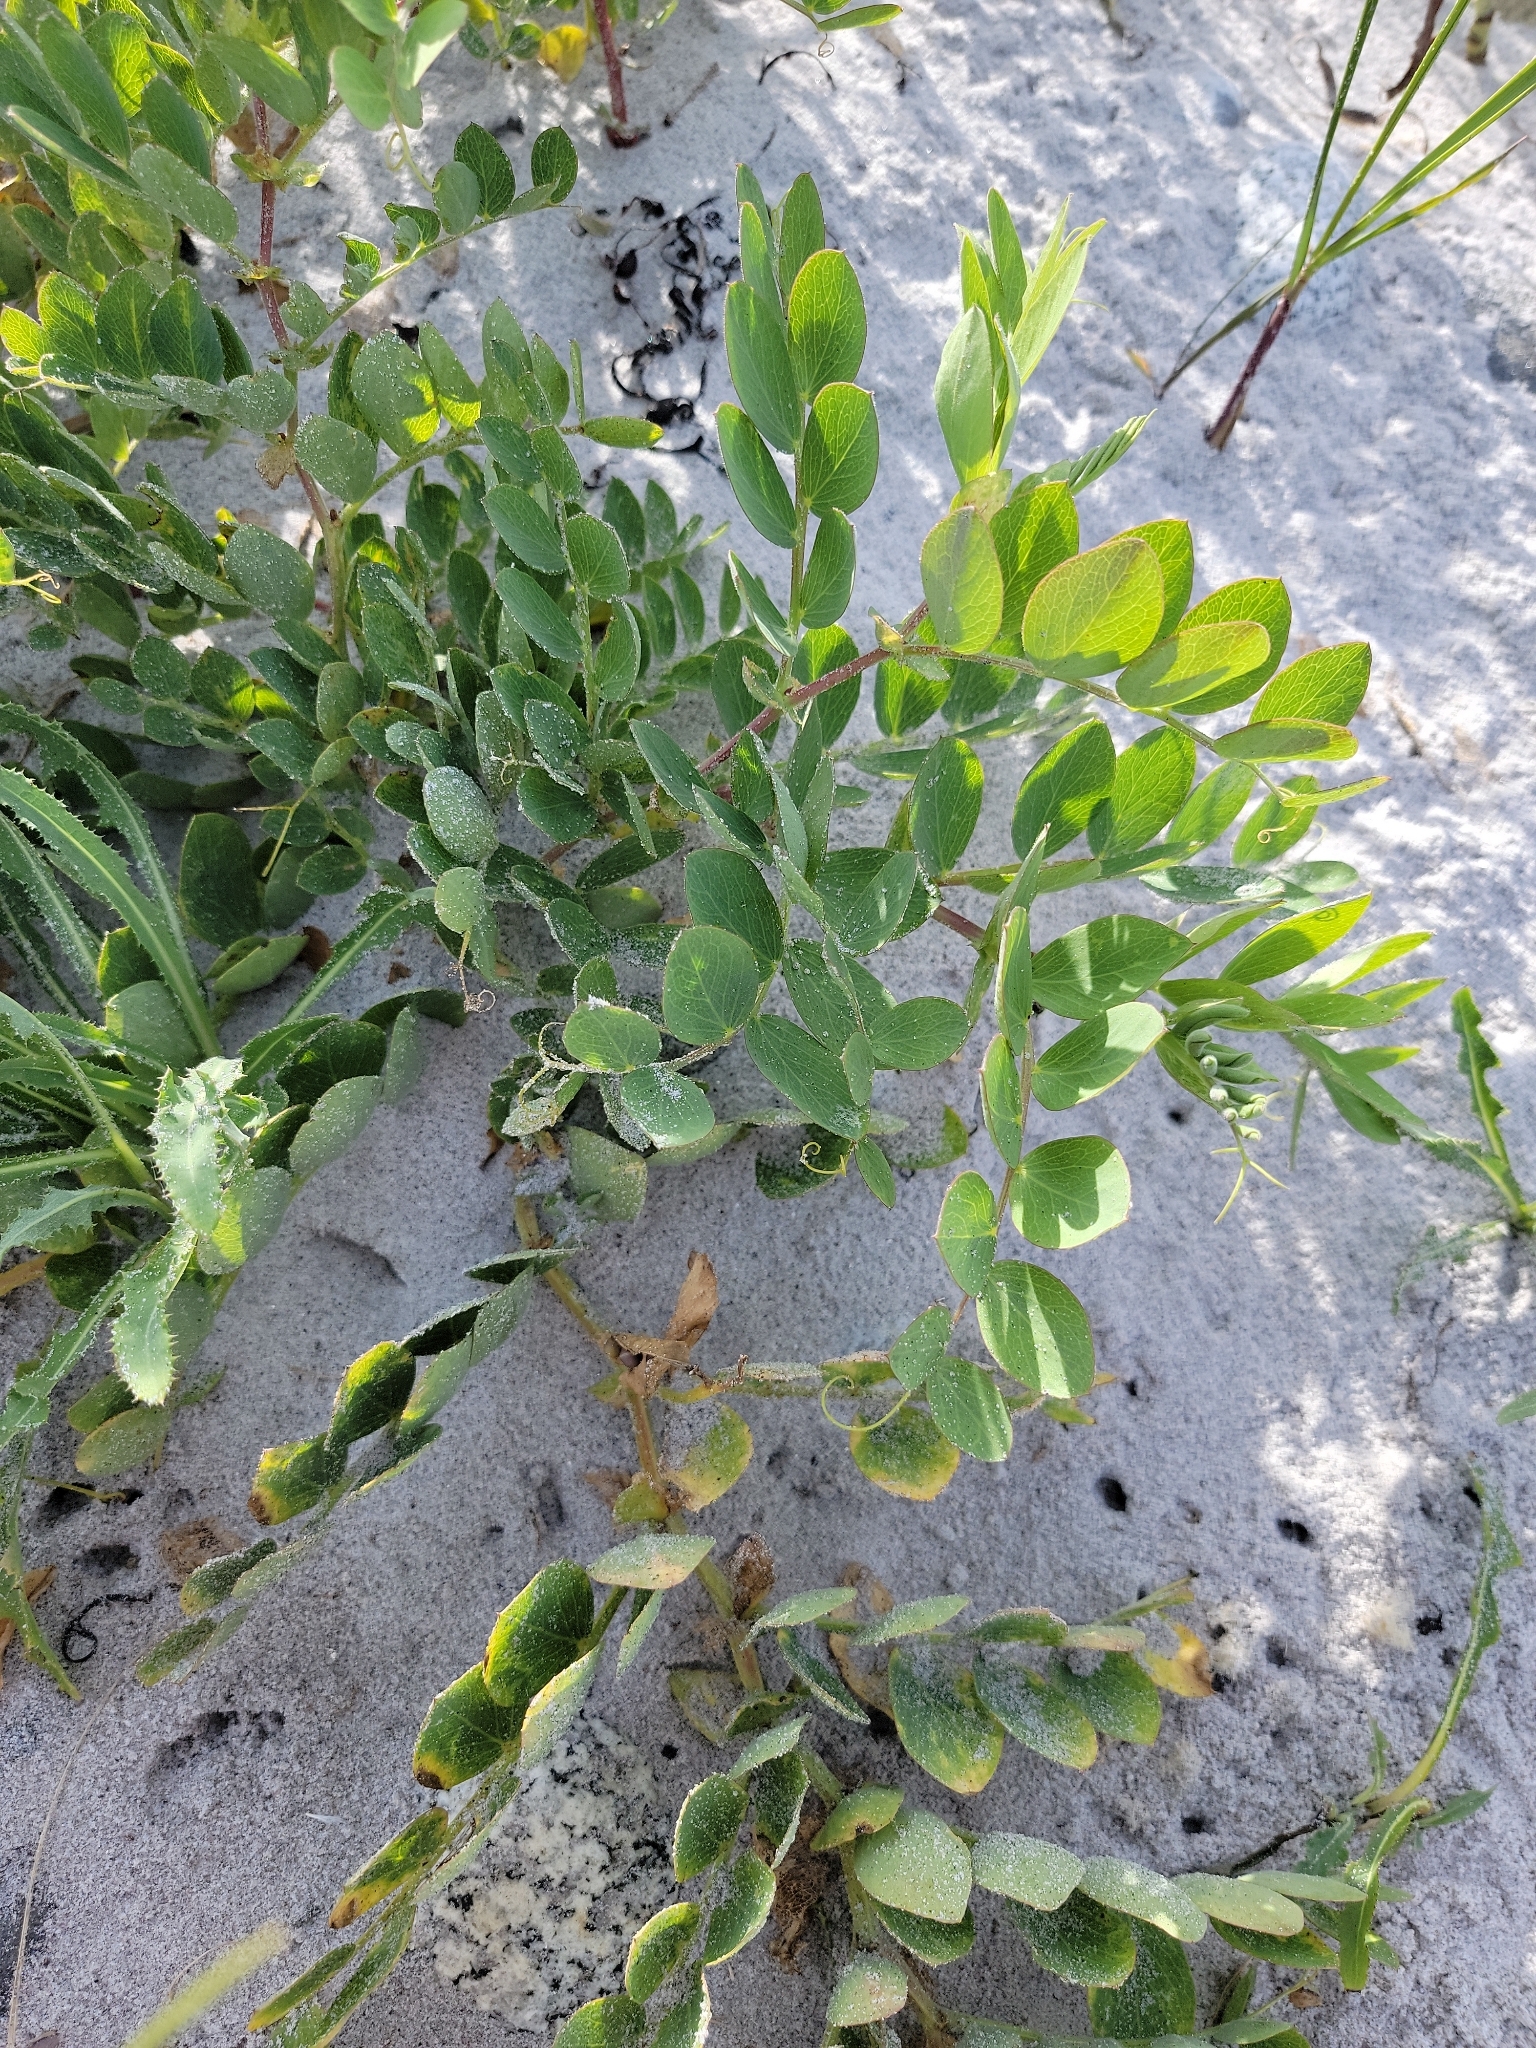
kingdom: Plantae
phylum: Tracheophyta
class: Magnoliopsida
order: Fabales
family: Fabaceae
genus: Lathyrus
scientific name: Lathyrus japonicus
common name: Sea pea
